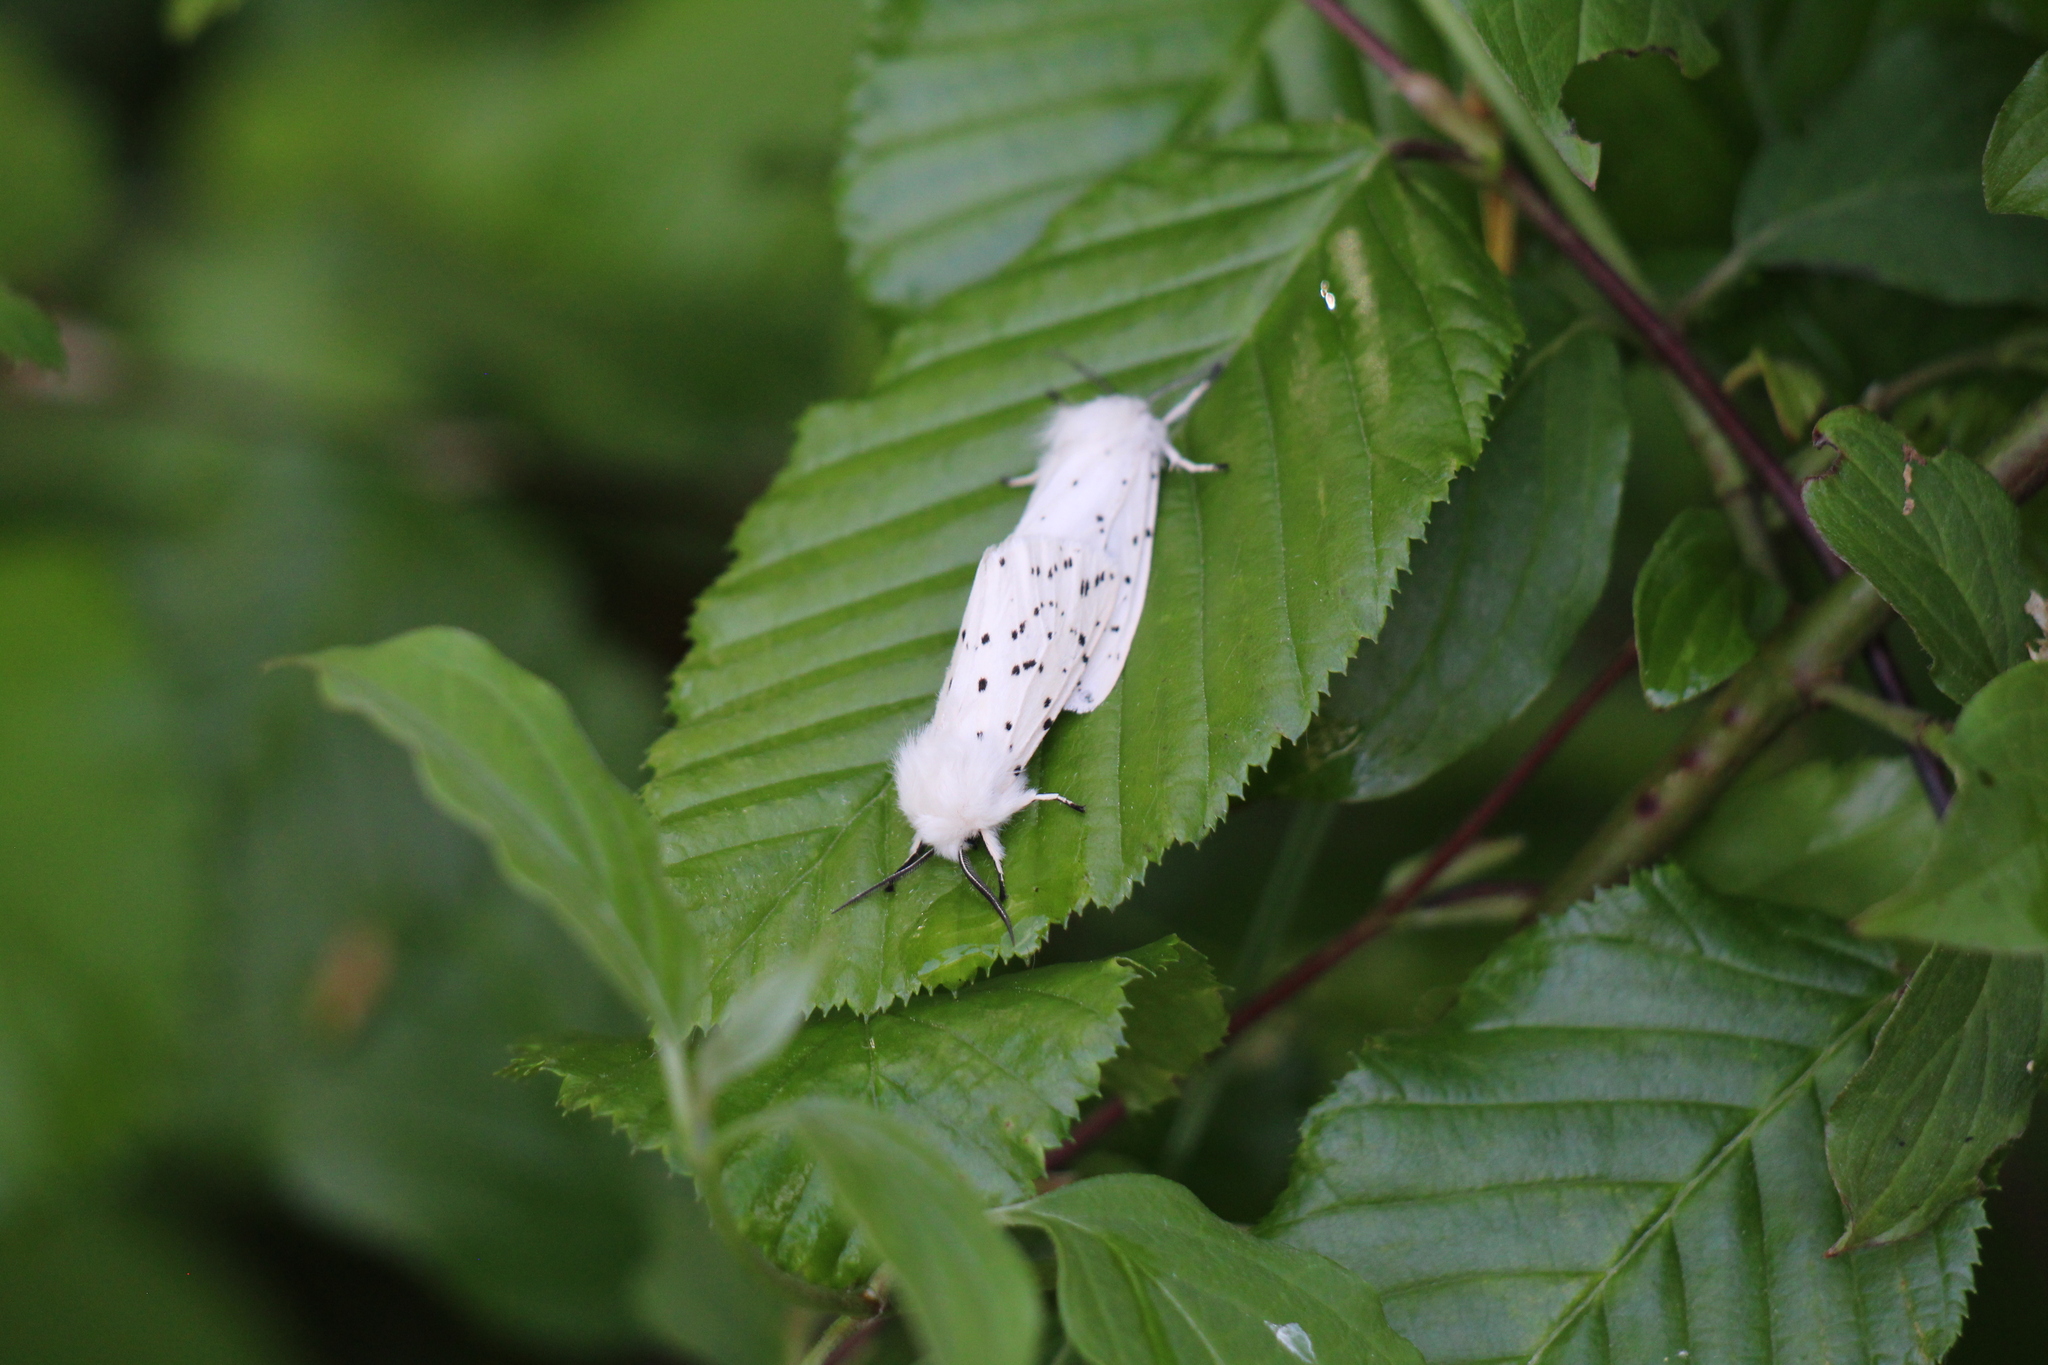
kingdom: Animalia
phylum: Arthropoda
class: Insecta
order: Lepidoptera
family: Erebidae
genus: Spilosoma
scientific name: Spilosoma lubricipeda
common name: White ermine
